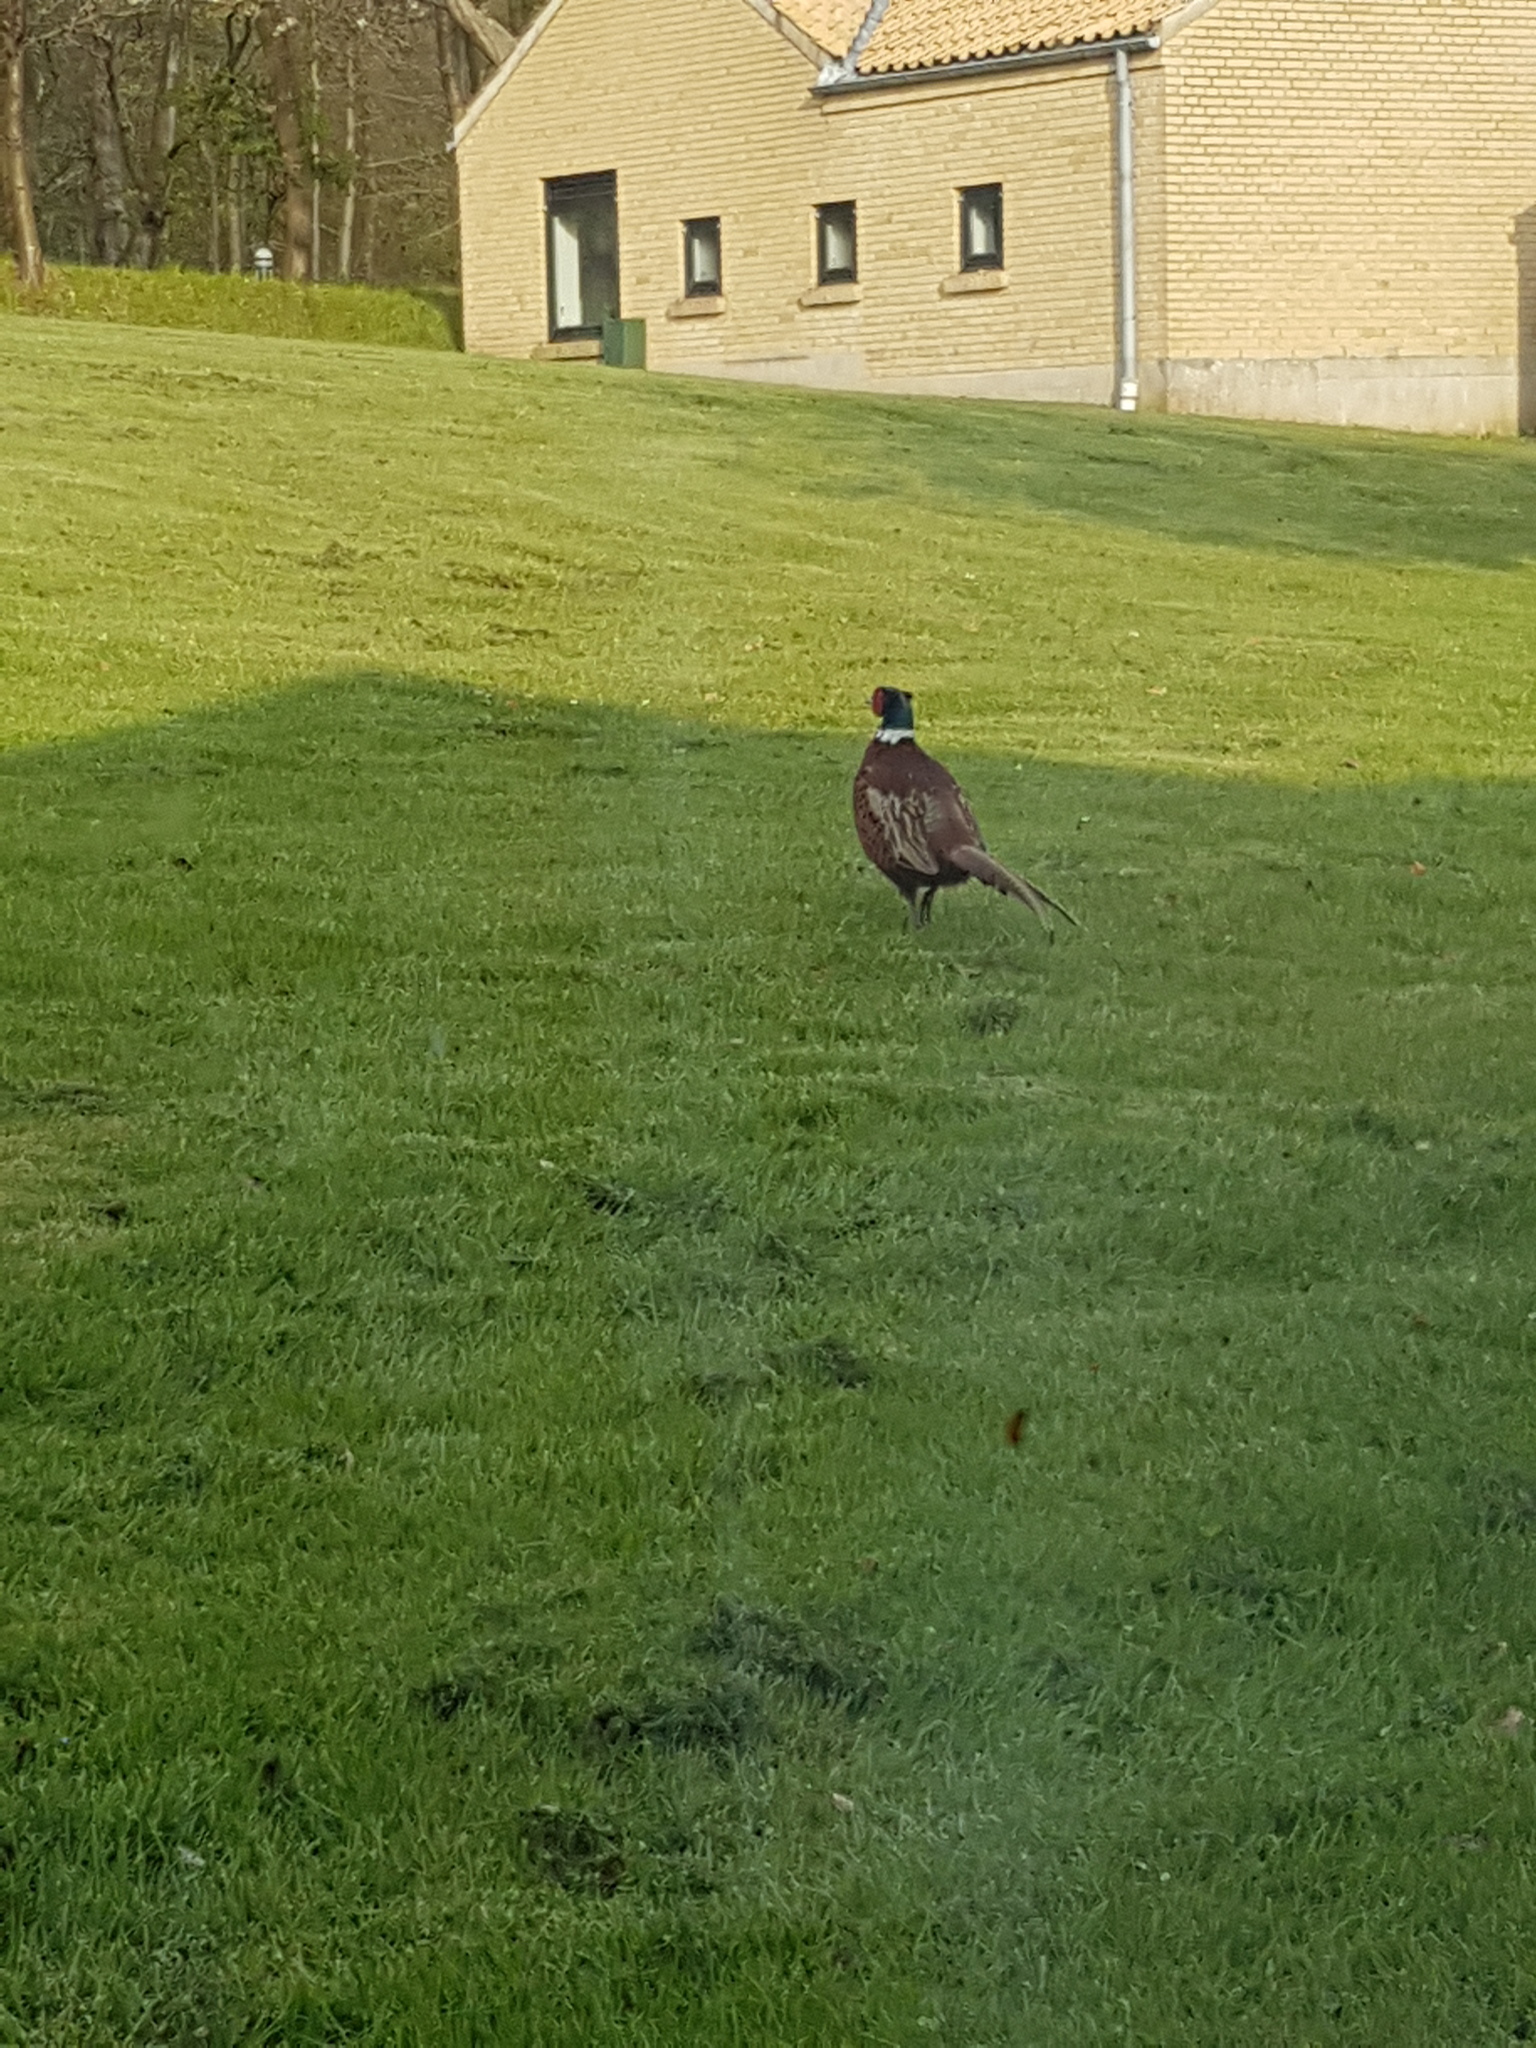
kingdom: Animalia
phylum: Chordata
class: Aves
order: Galliformes
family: Phasianidae
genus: Phasianus
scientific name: Phasianus colchicus
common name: Common pheasant
